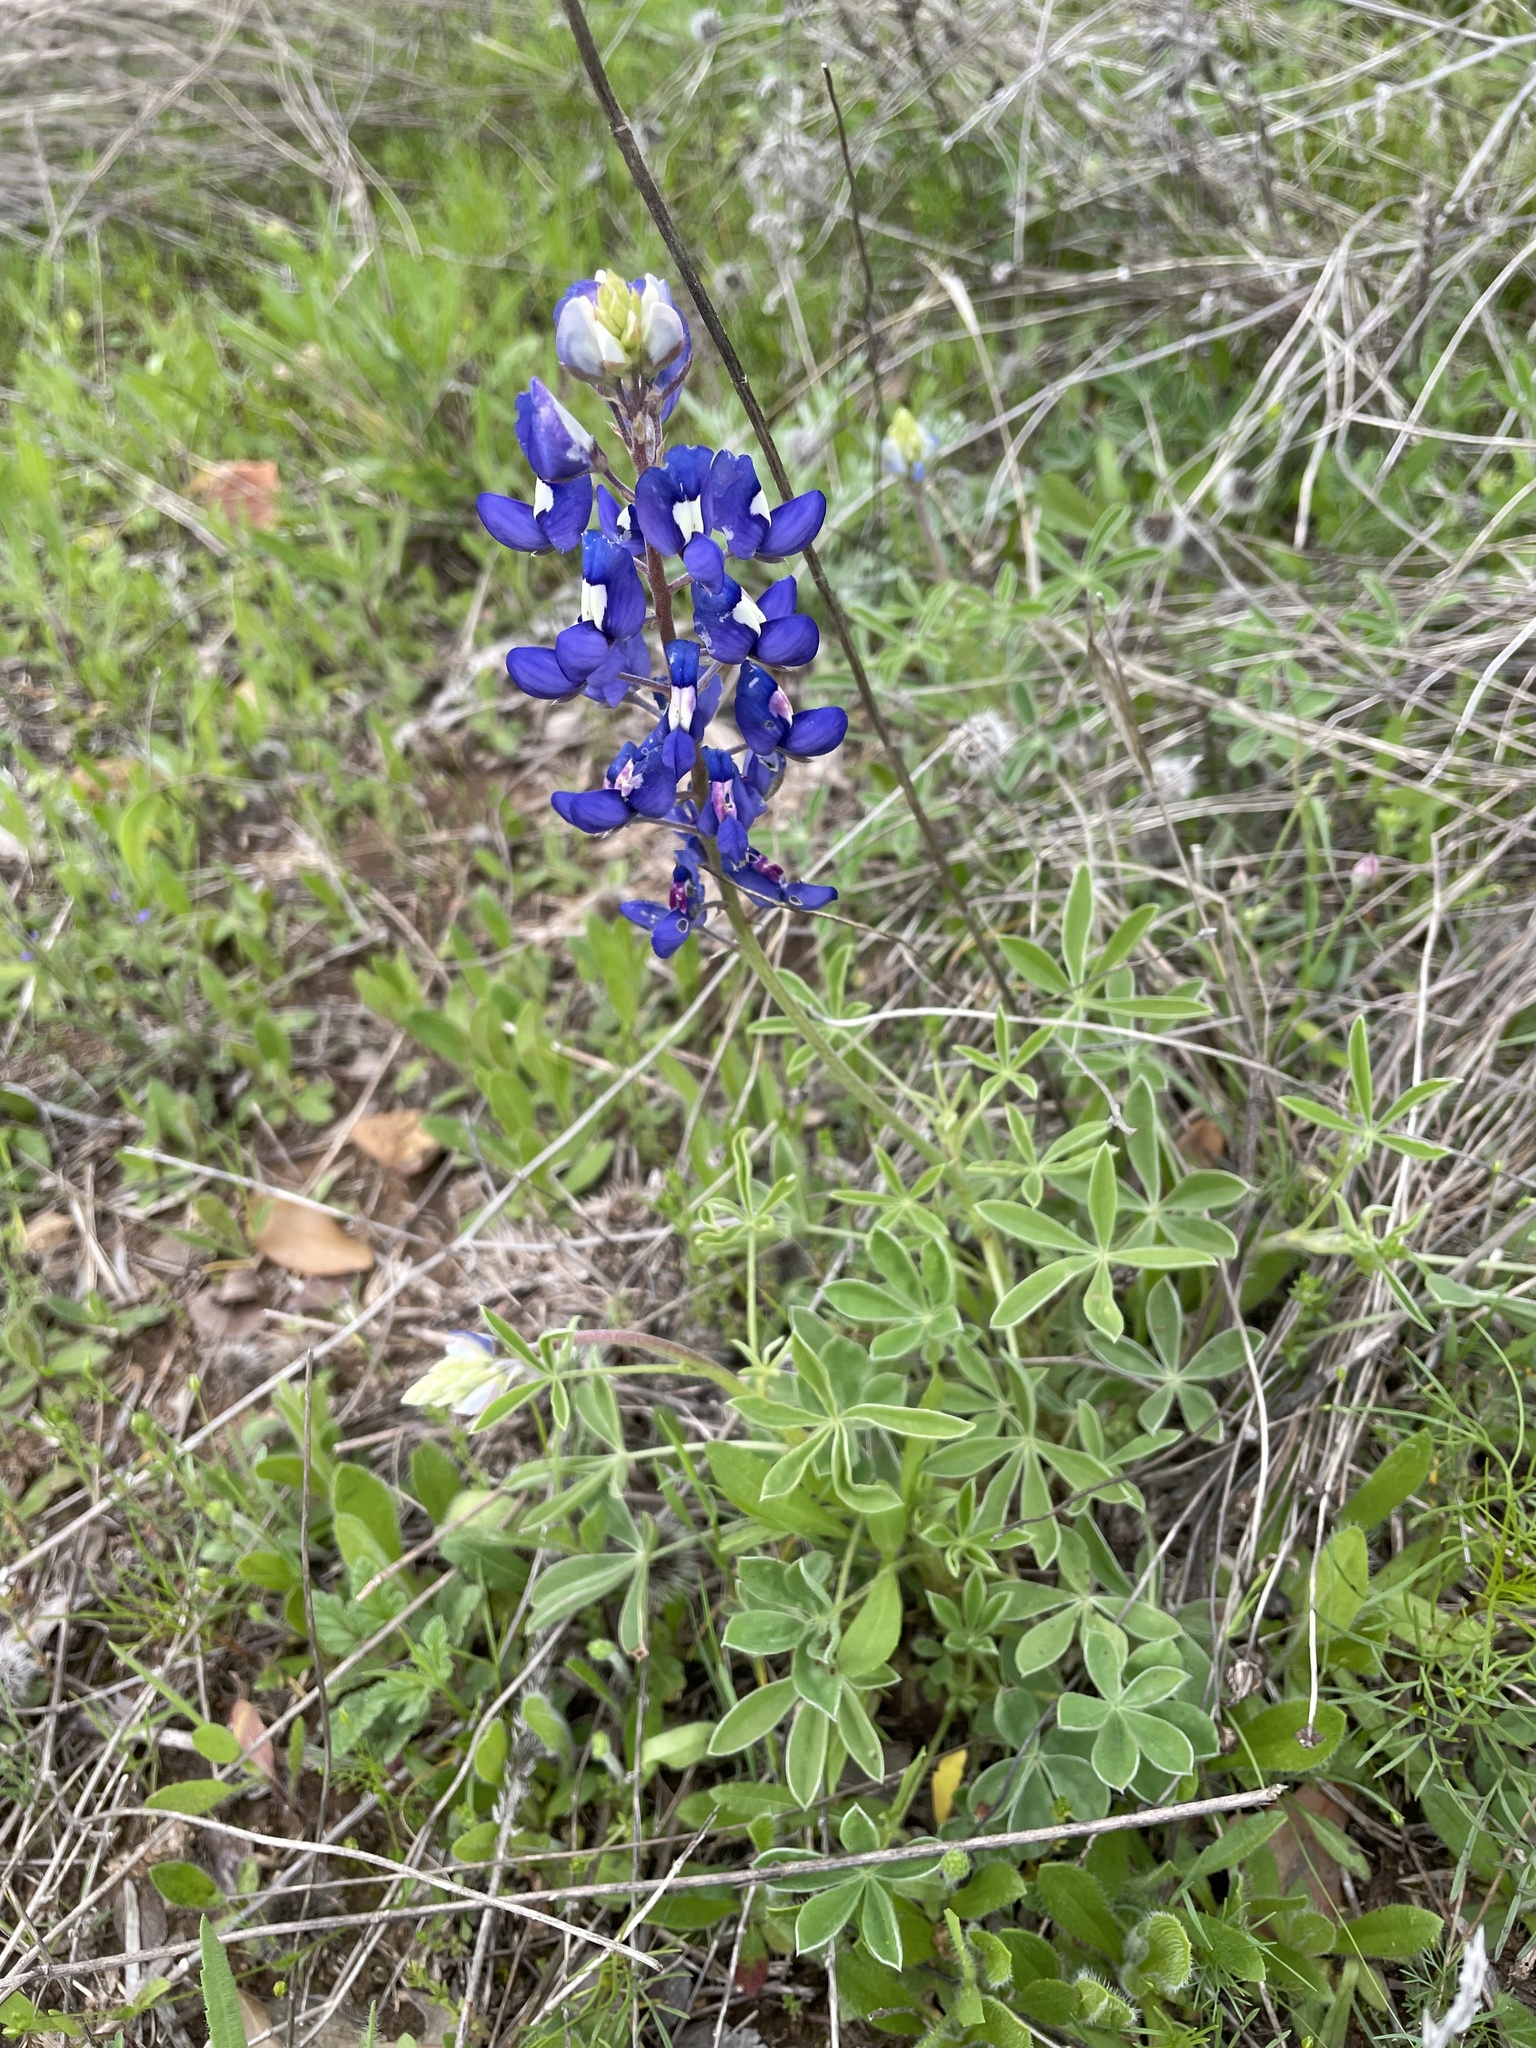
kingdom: Plantae
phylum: Tracheophyta
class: Magnoliopsida
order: Fabales
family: Fabaceae
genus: Lupinus
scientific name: Lupinus texensis
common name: Texas bluebonnet
